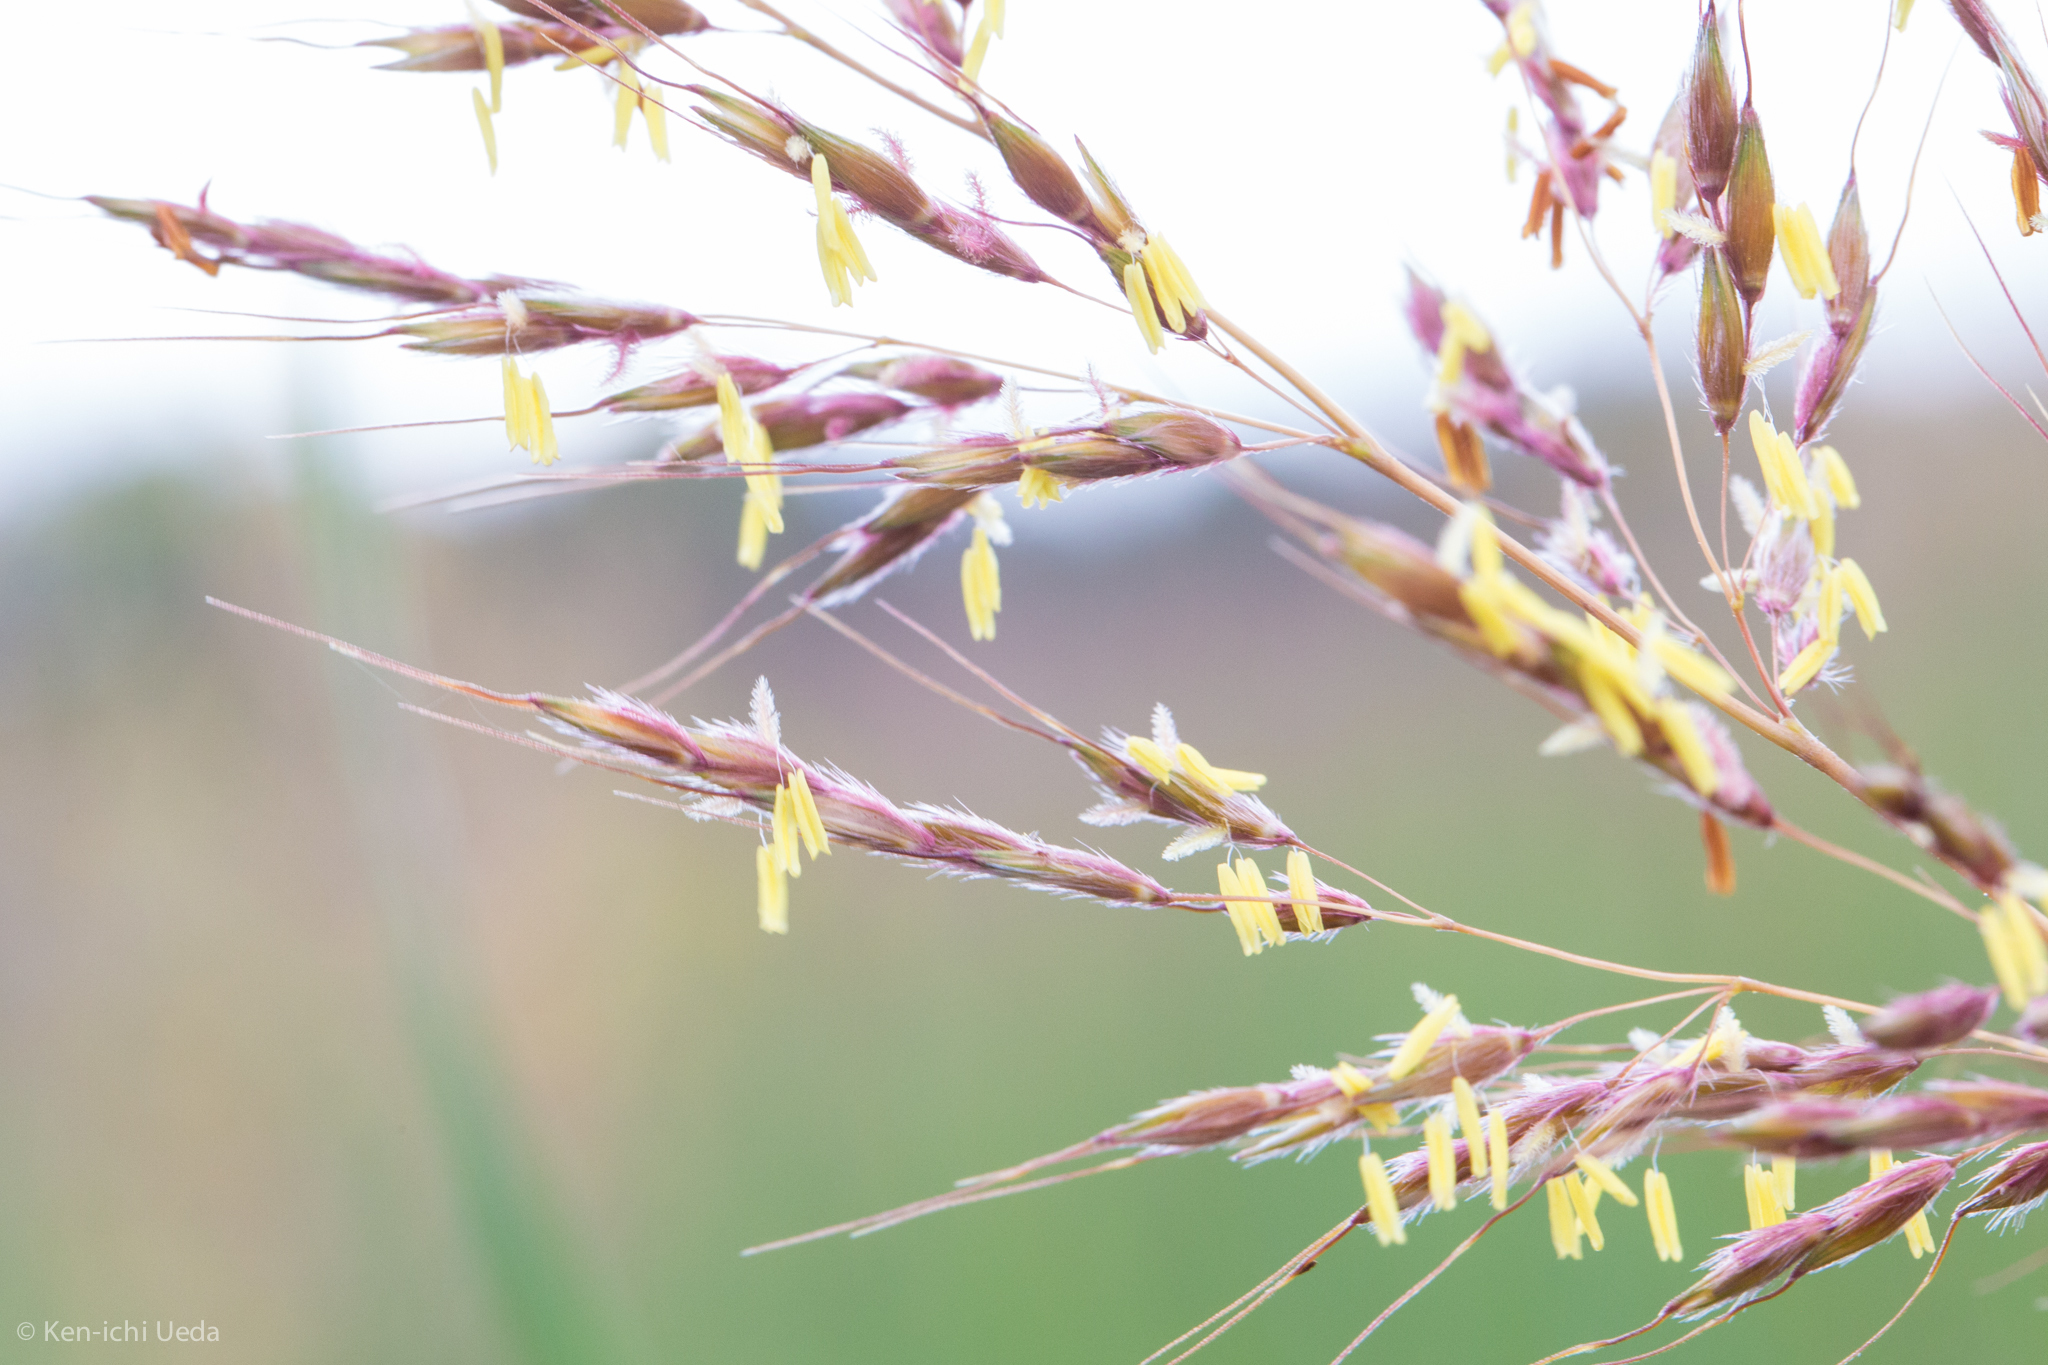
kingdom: Plantae
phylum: Tracheophyta
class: Liliopsida
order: Poales
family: Poaceae
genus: Sorghastrum
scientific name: Sorghastrum nutans
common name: Indian grass
